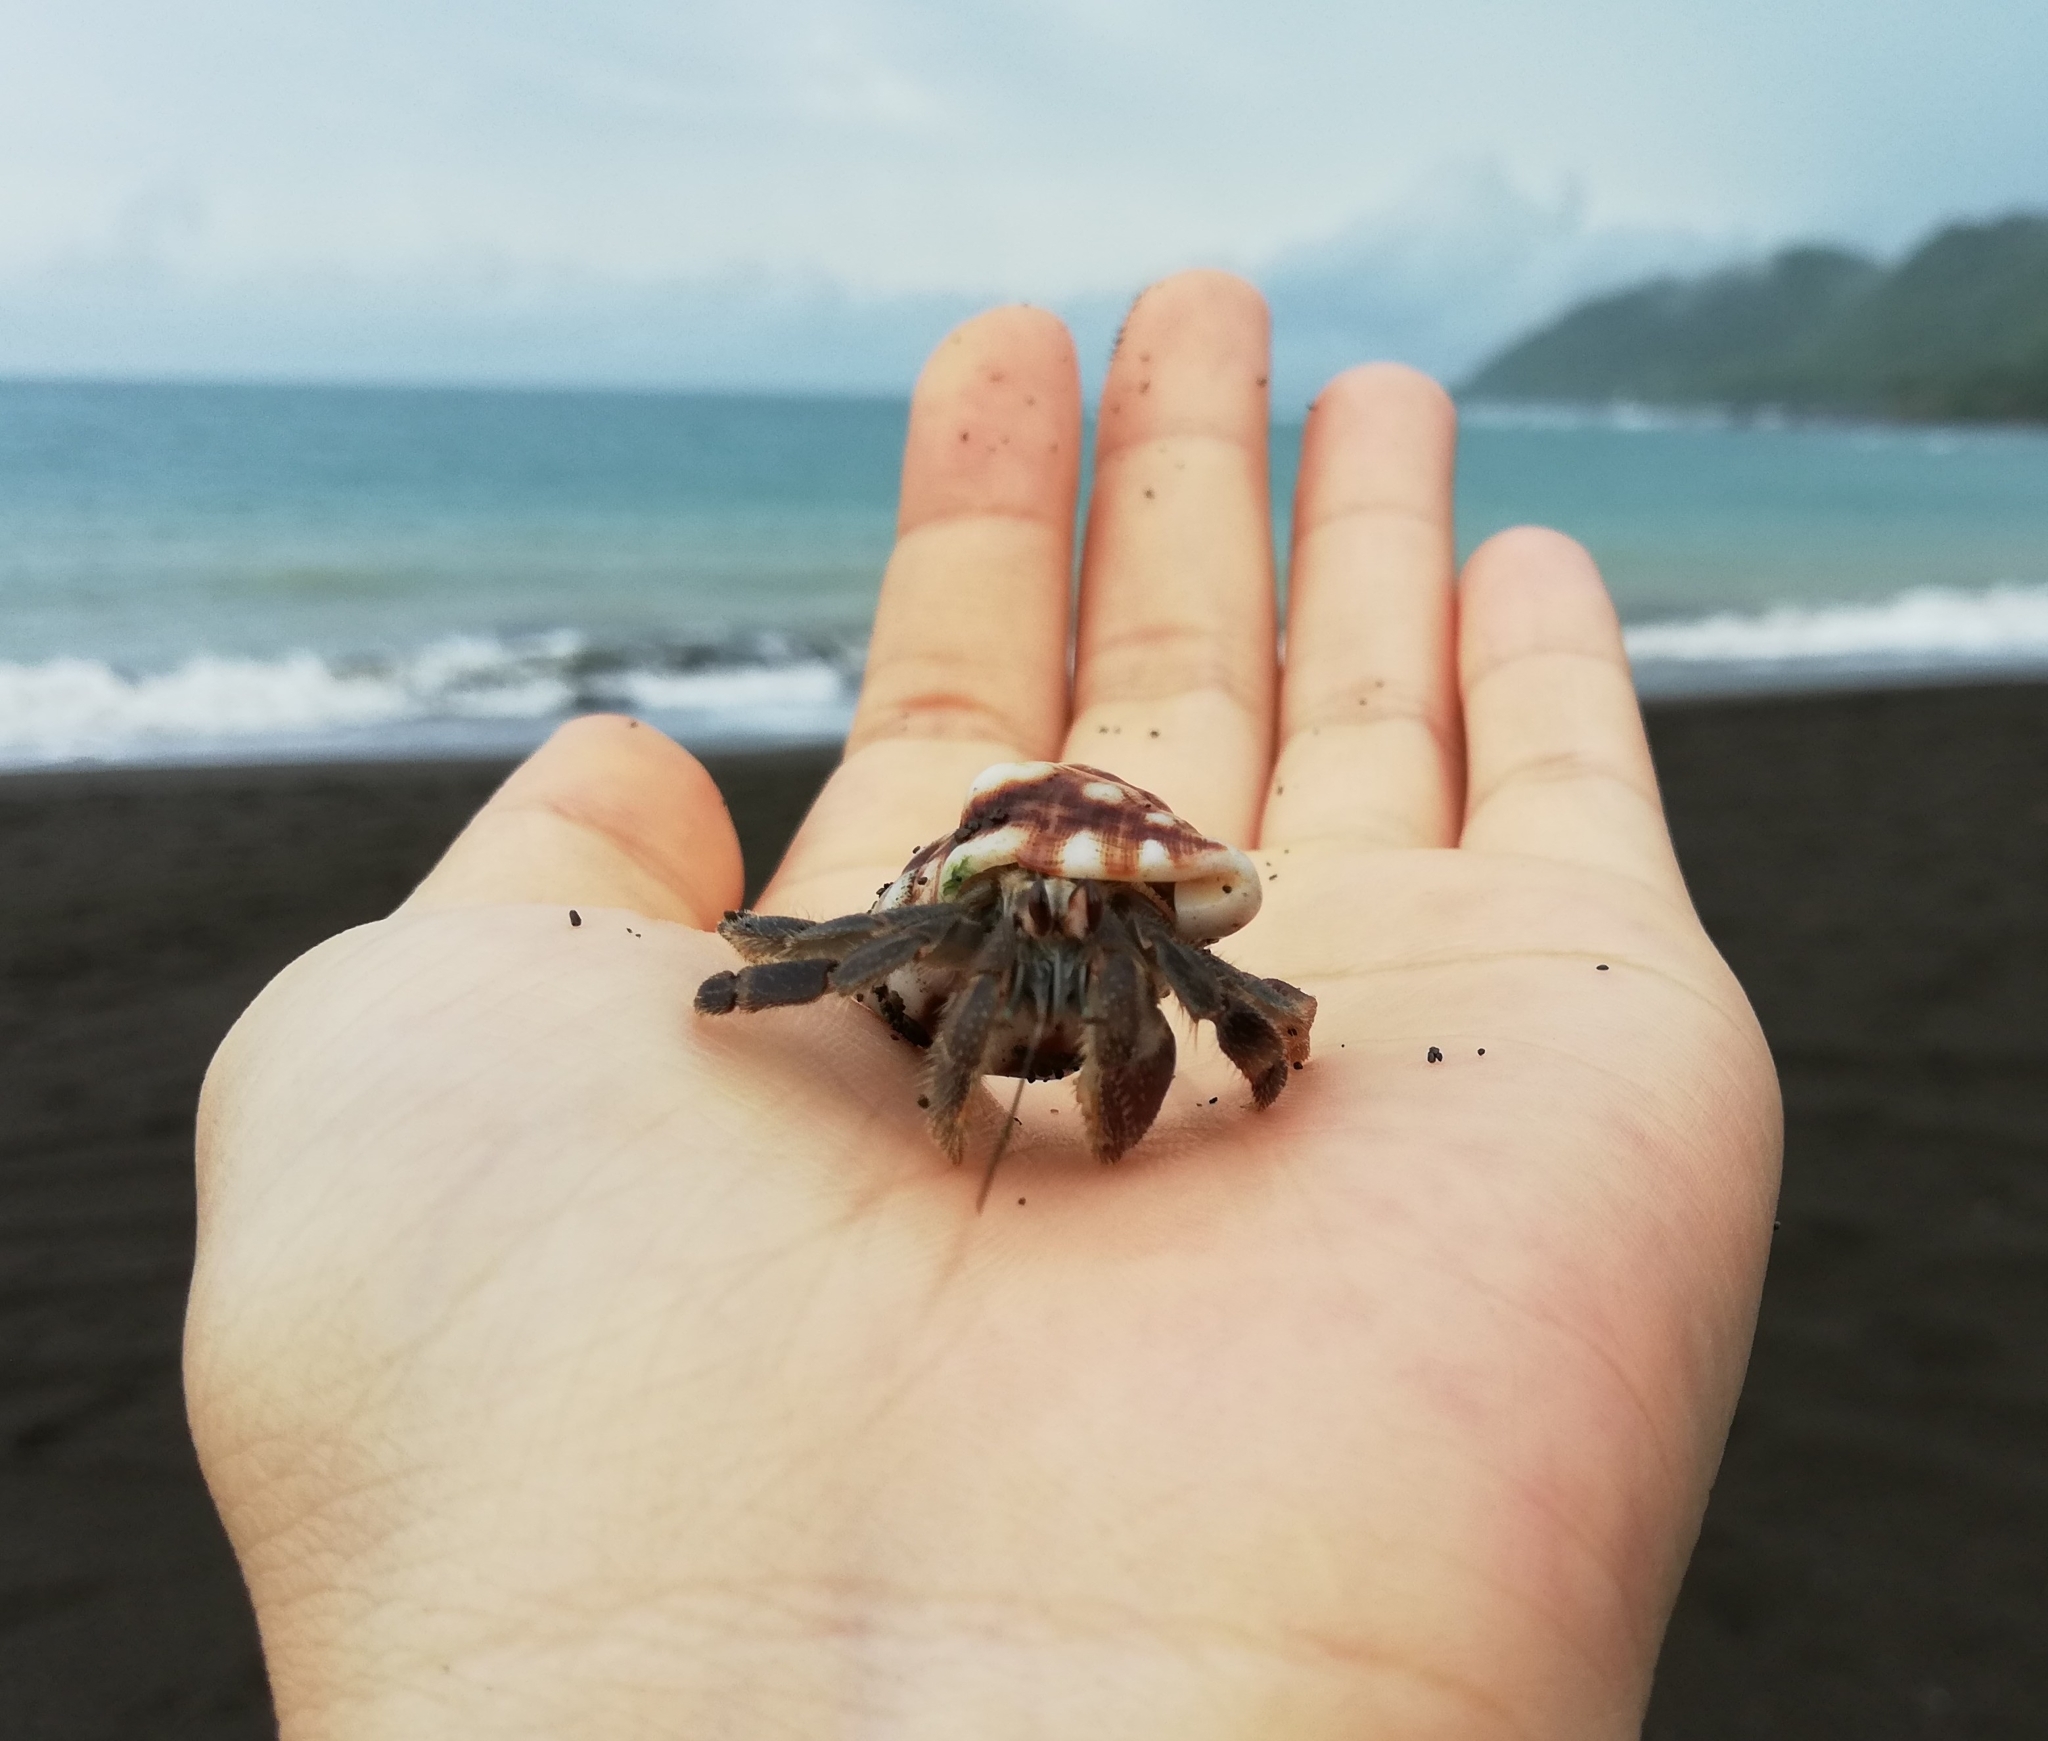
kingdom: Animalia
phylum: Arthropoda
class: Malacostraca
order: Decapoda
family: Coenobitidae
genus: Coenobita
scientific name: Coenobita compressus
